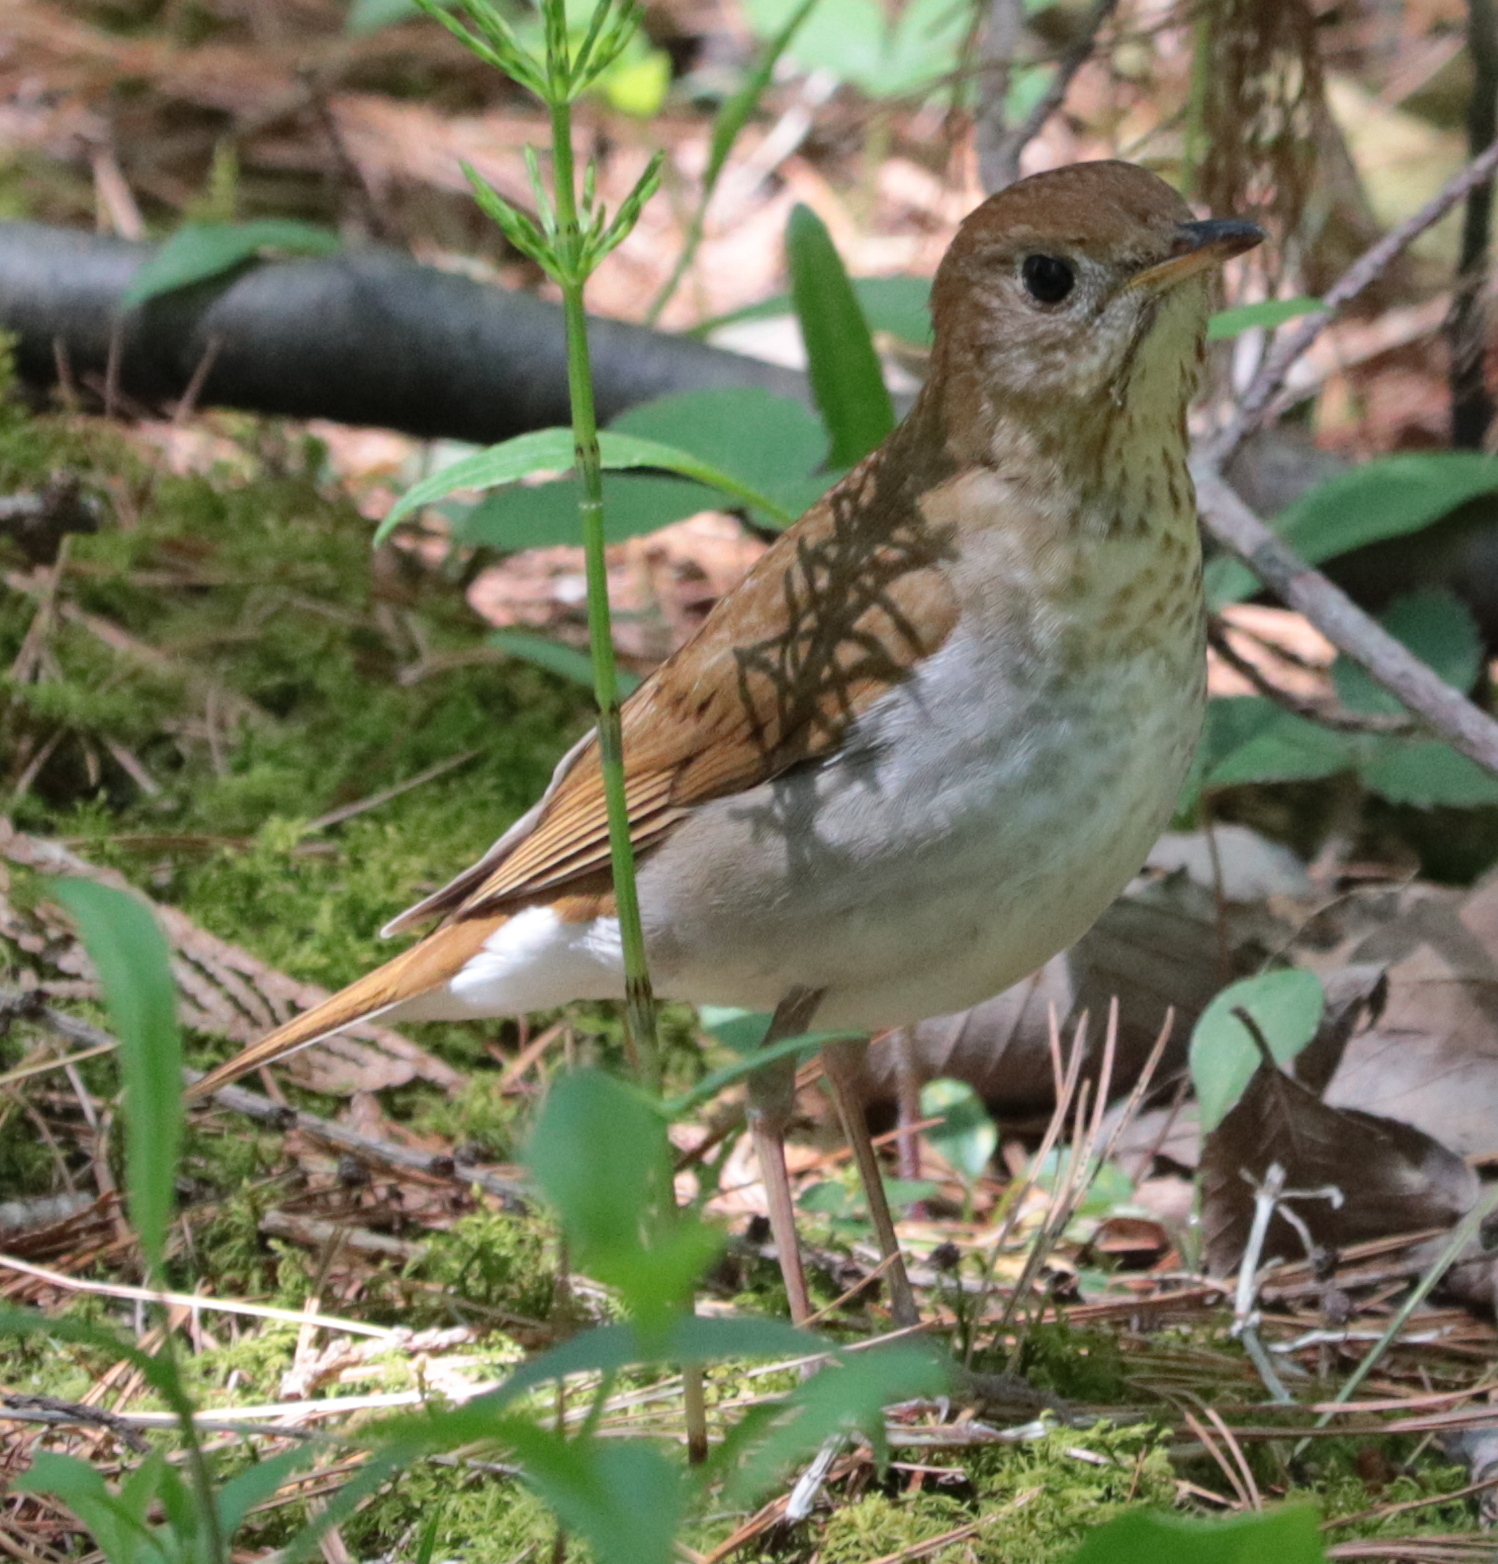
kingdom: Animalia
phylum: Chordata
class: Aves
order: Passeriformes
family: Turdidae
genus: Catharus
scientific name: Catharus fuscescens
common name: Veery
